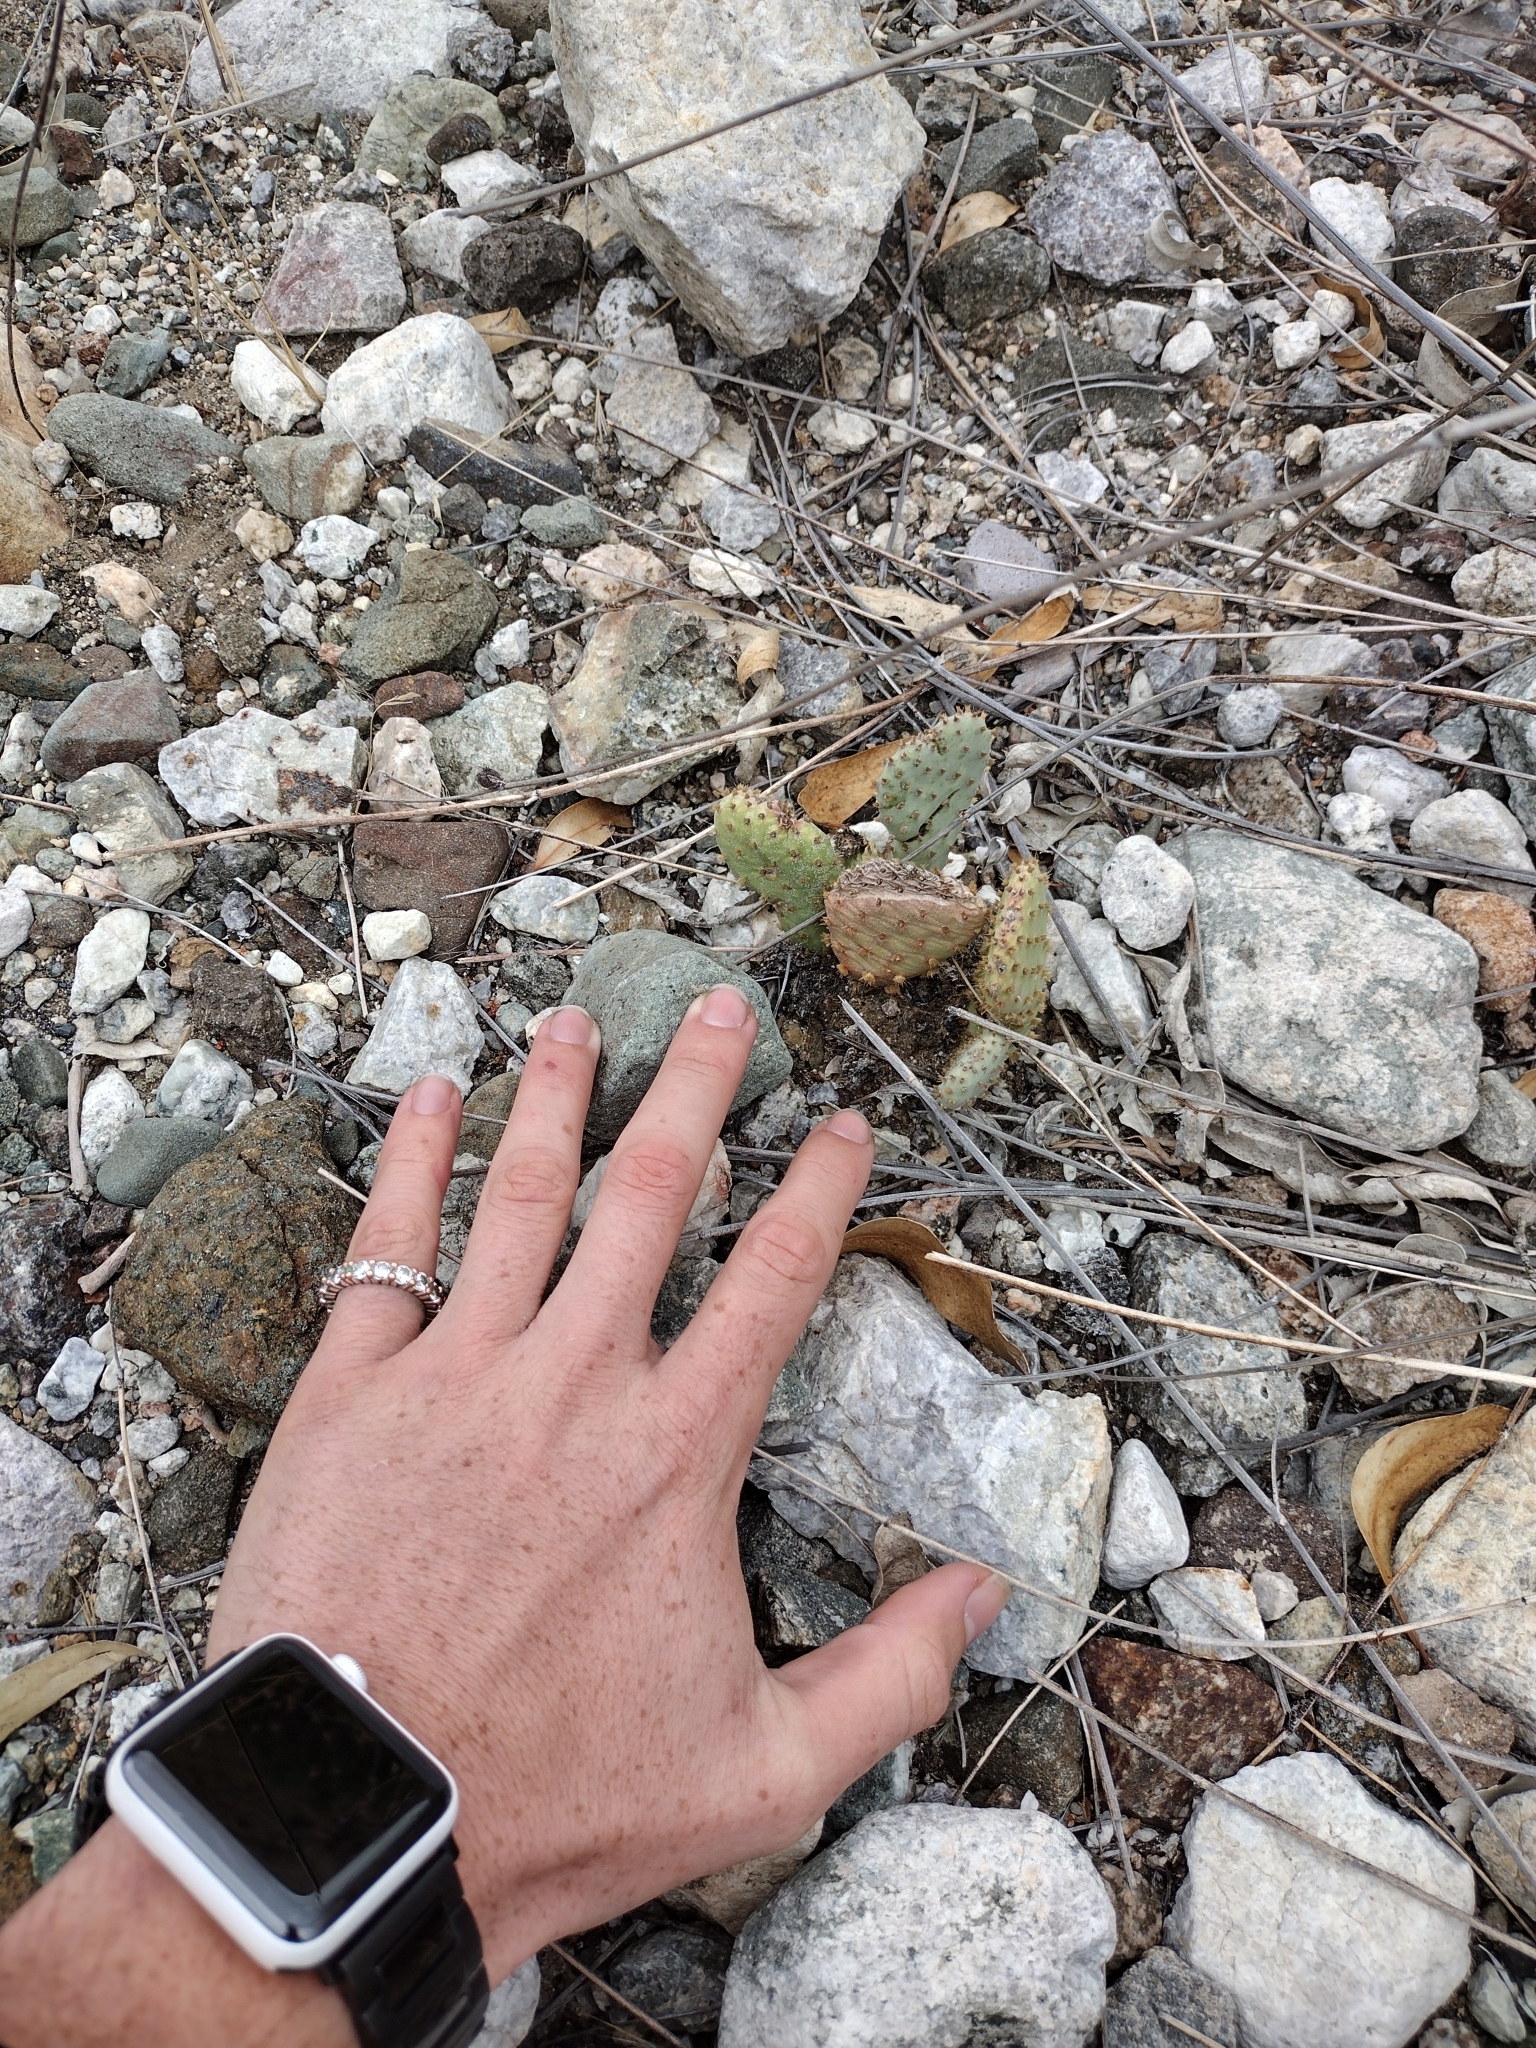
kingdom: Plantae
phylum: Tracheophyta
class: Magnoliopsida
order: Caryophyllales
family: Cactaceae
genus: Opuntia
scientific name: Opuntia basilaris
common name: Beavertail prickly-pear
